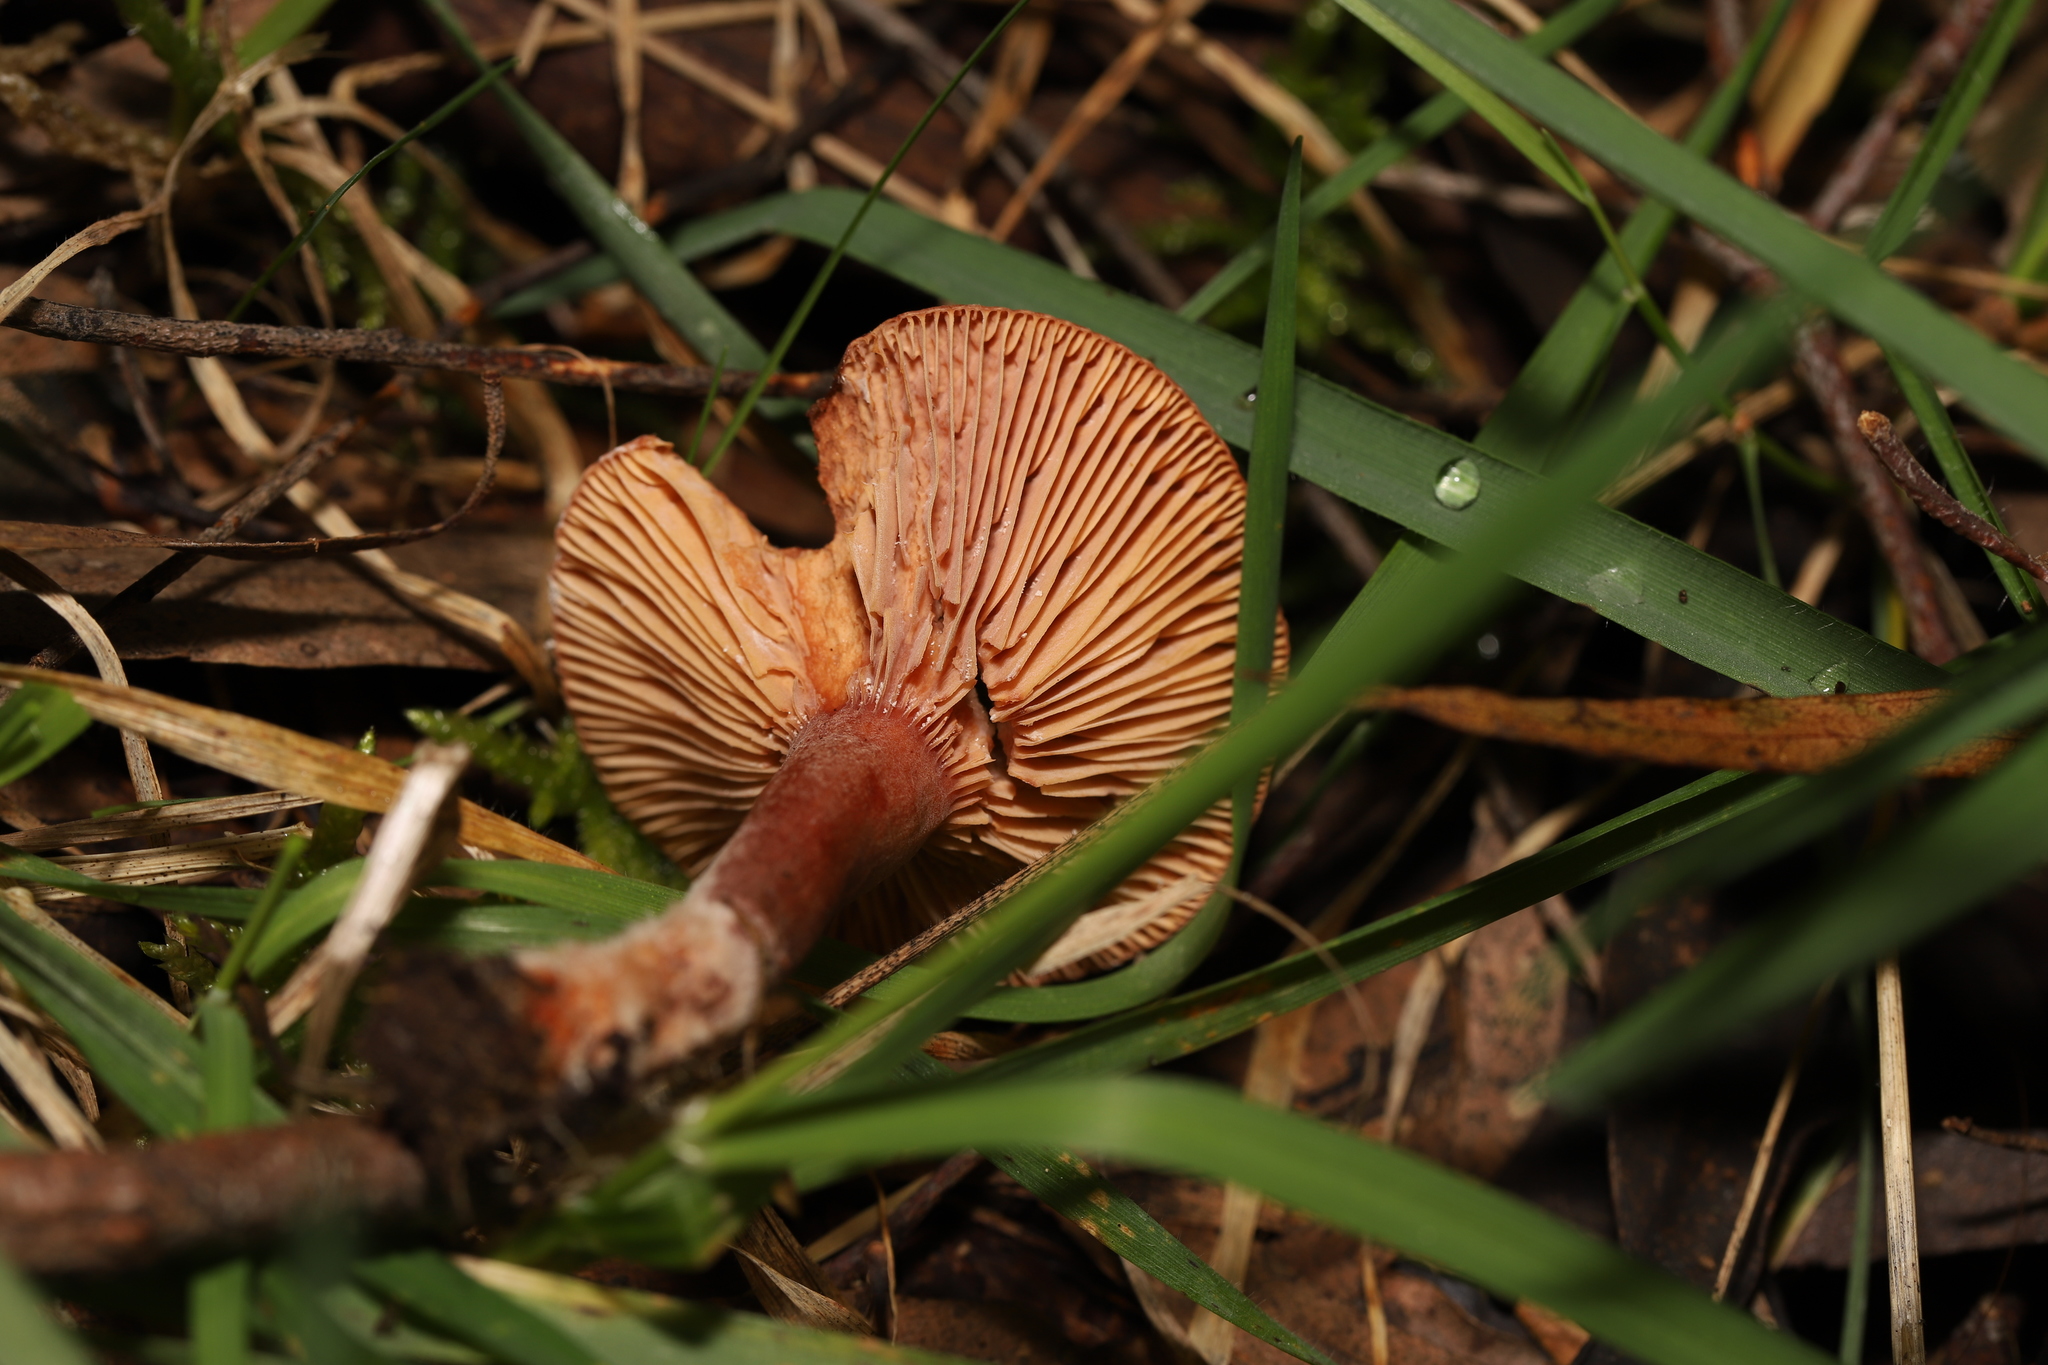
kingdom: Fungi
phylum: Basidiomycota
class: Agaricomycetes
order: Russulales
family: Russulaceae
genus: Lactarius
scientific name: Lactarius eucalypti
